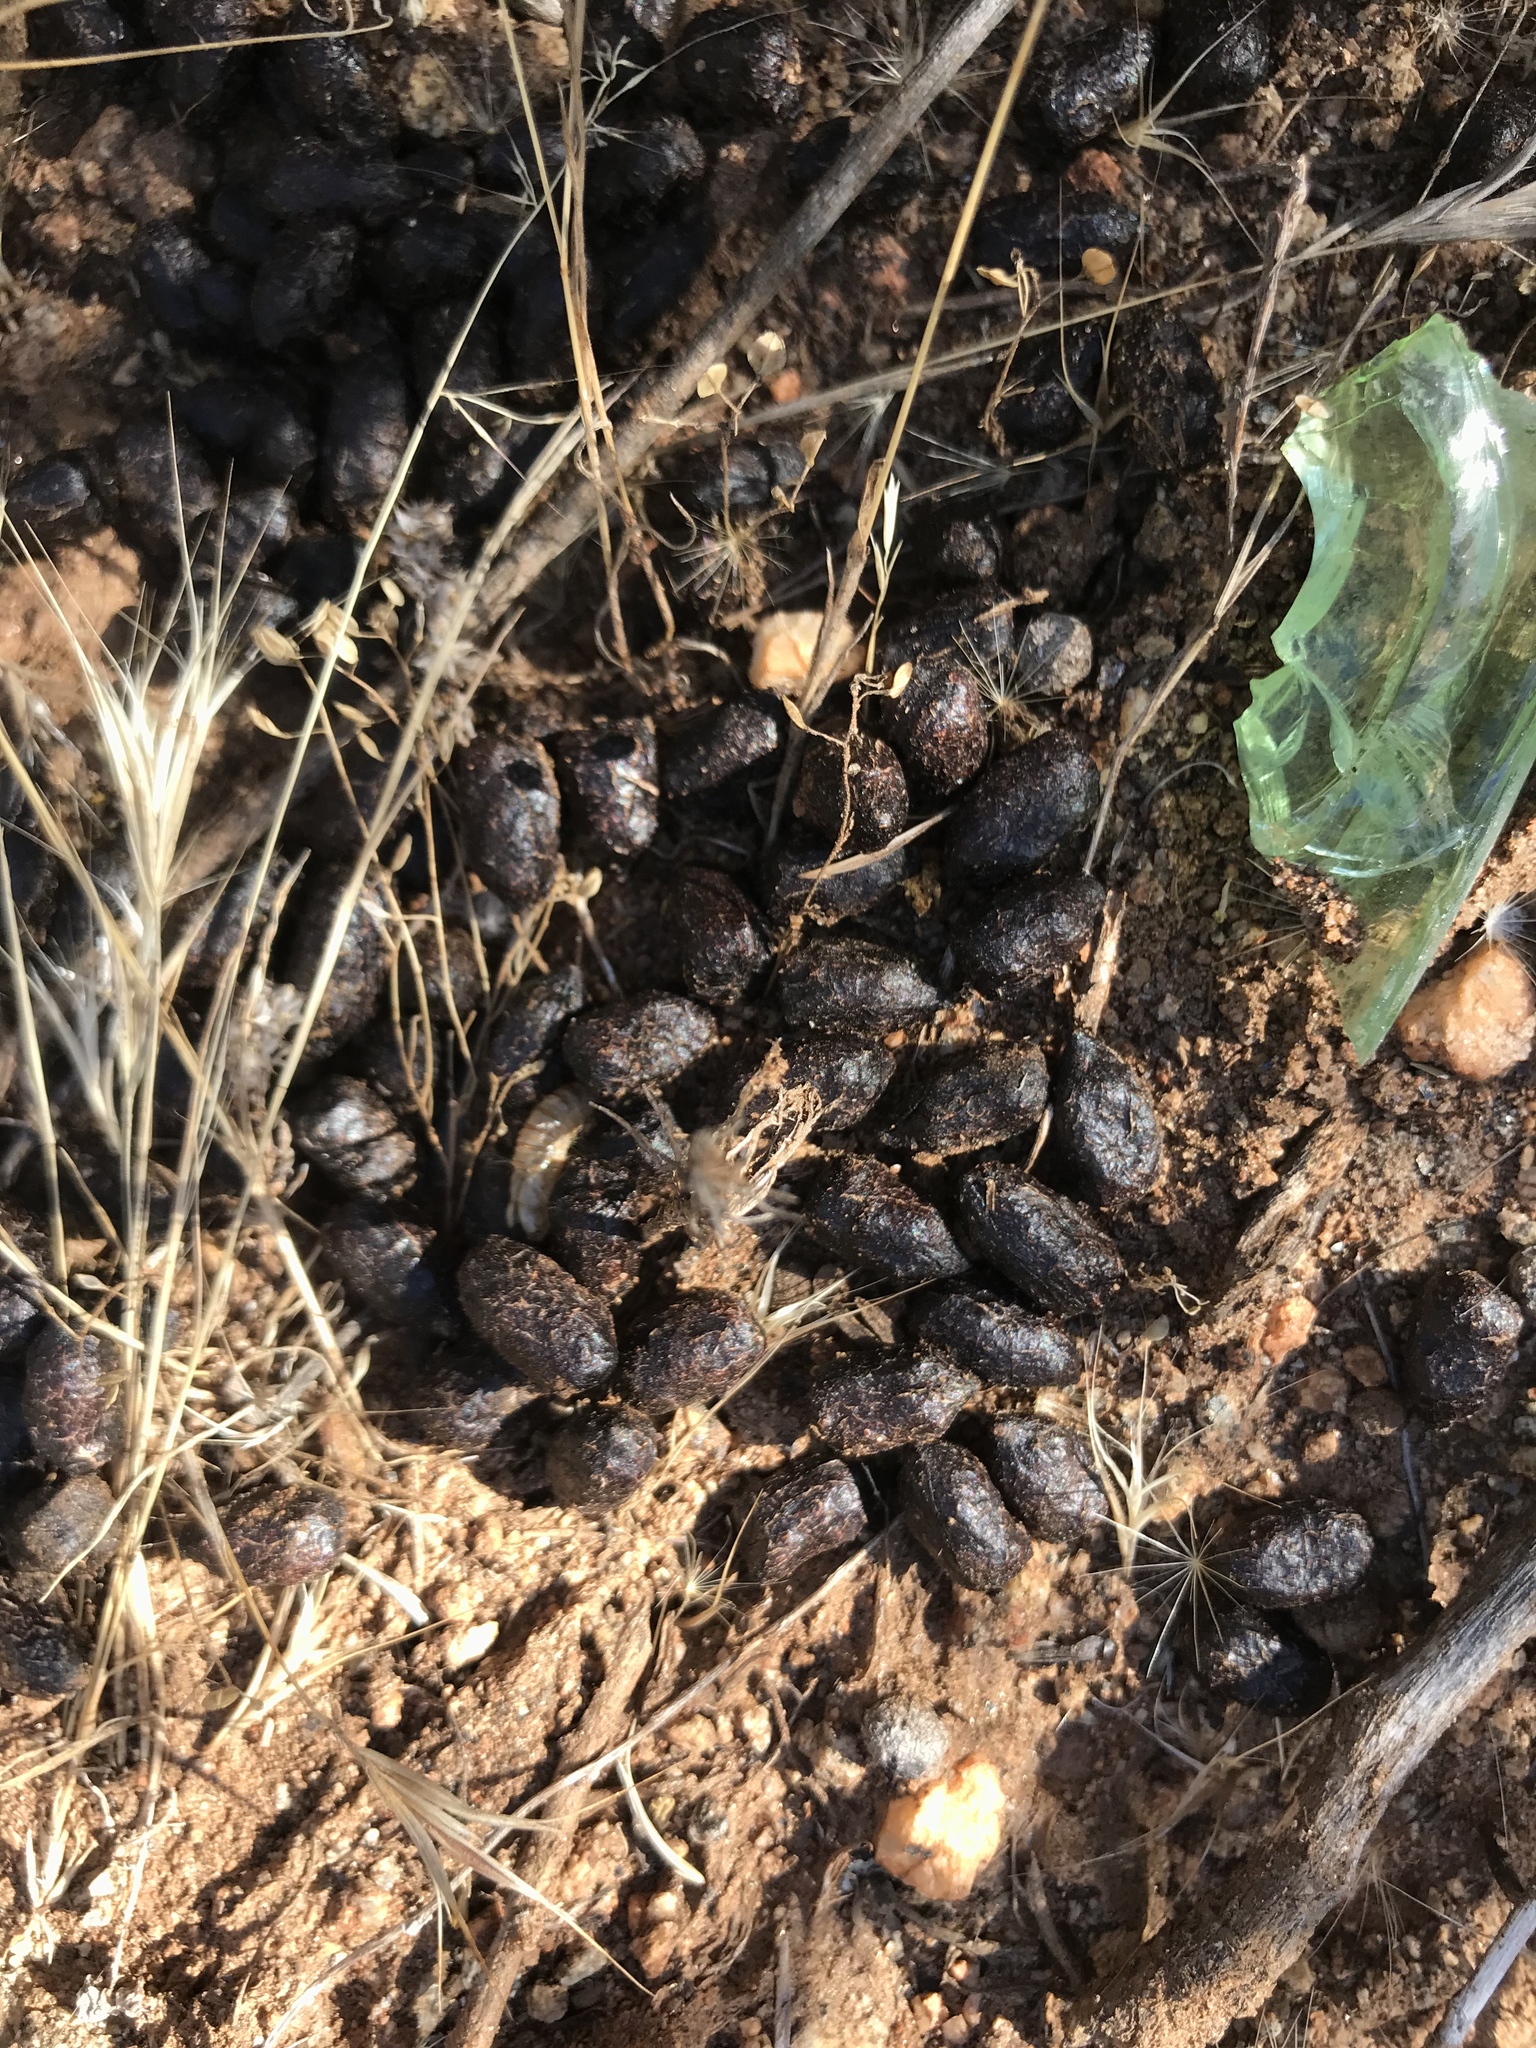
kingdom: Animalia
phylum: Chordata
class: Mammalia
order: Artiodactyla
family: Cervidae
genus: Odocoileus
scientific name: Odocoileus hemionus
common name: Mule deer
